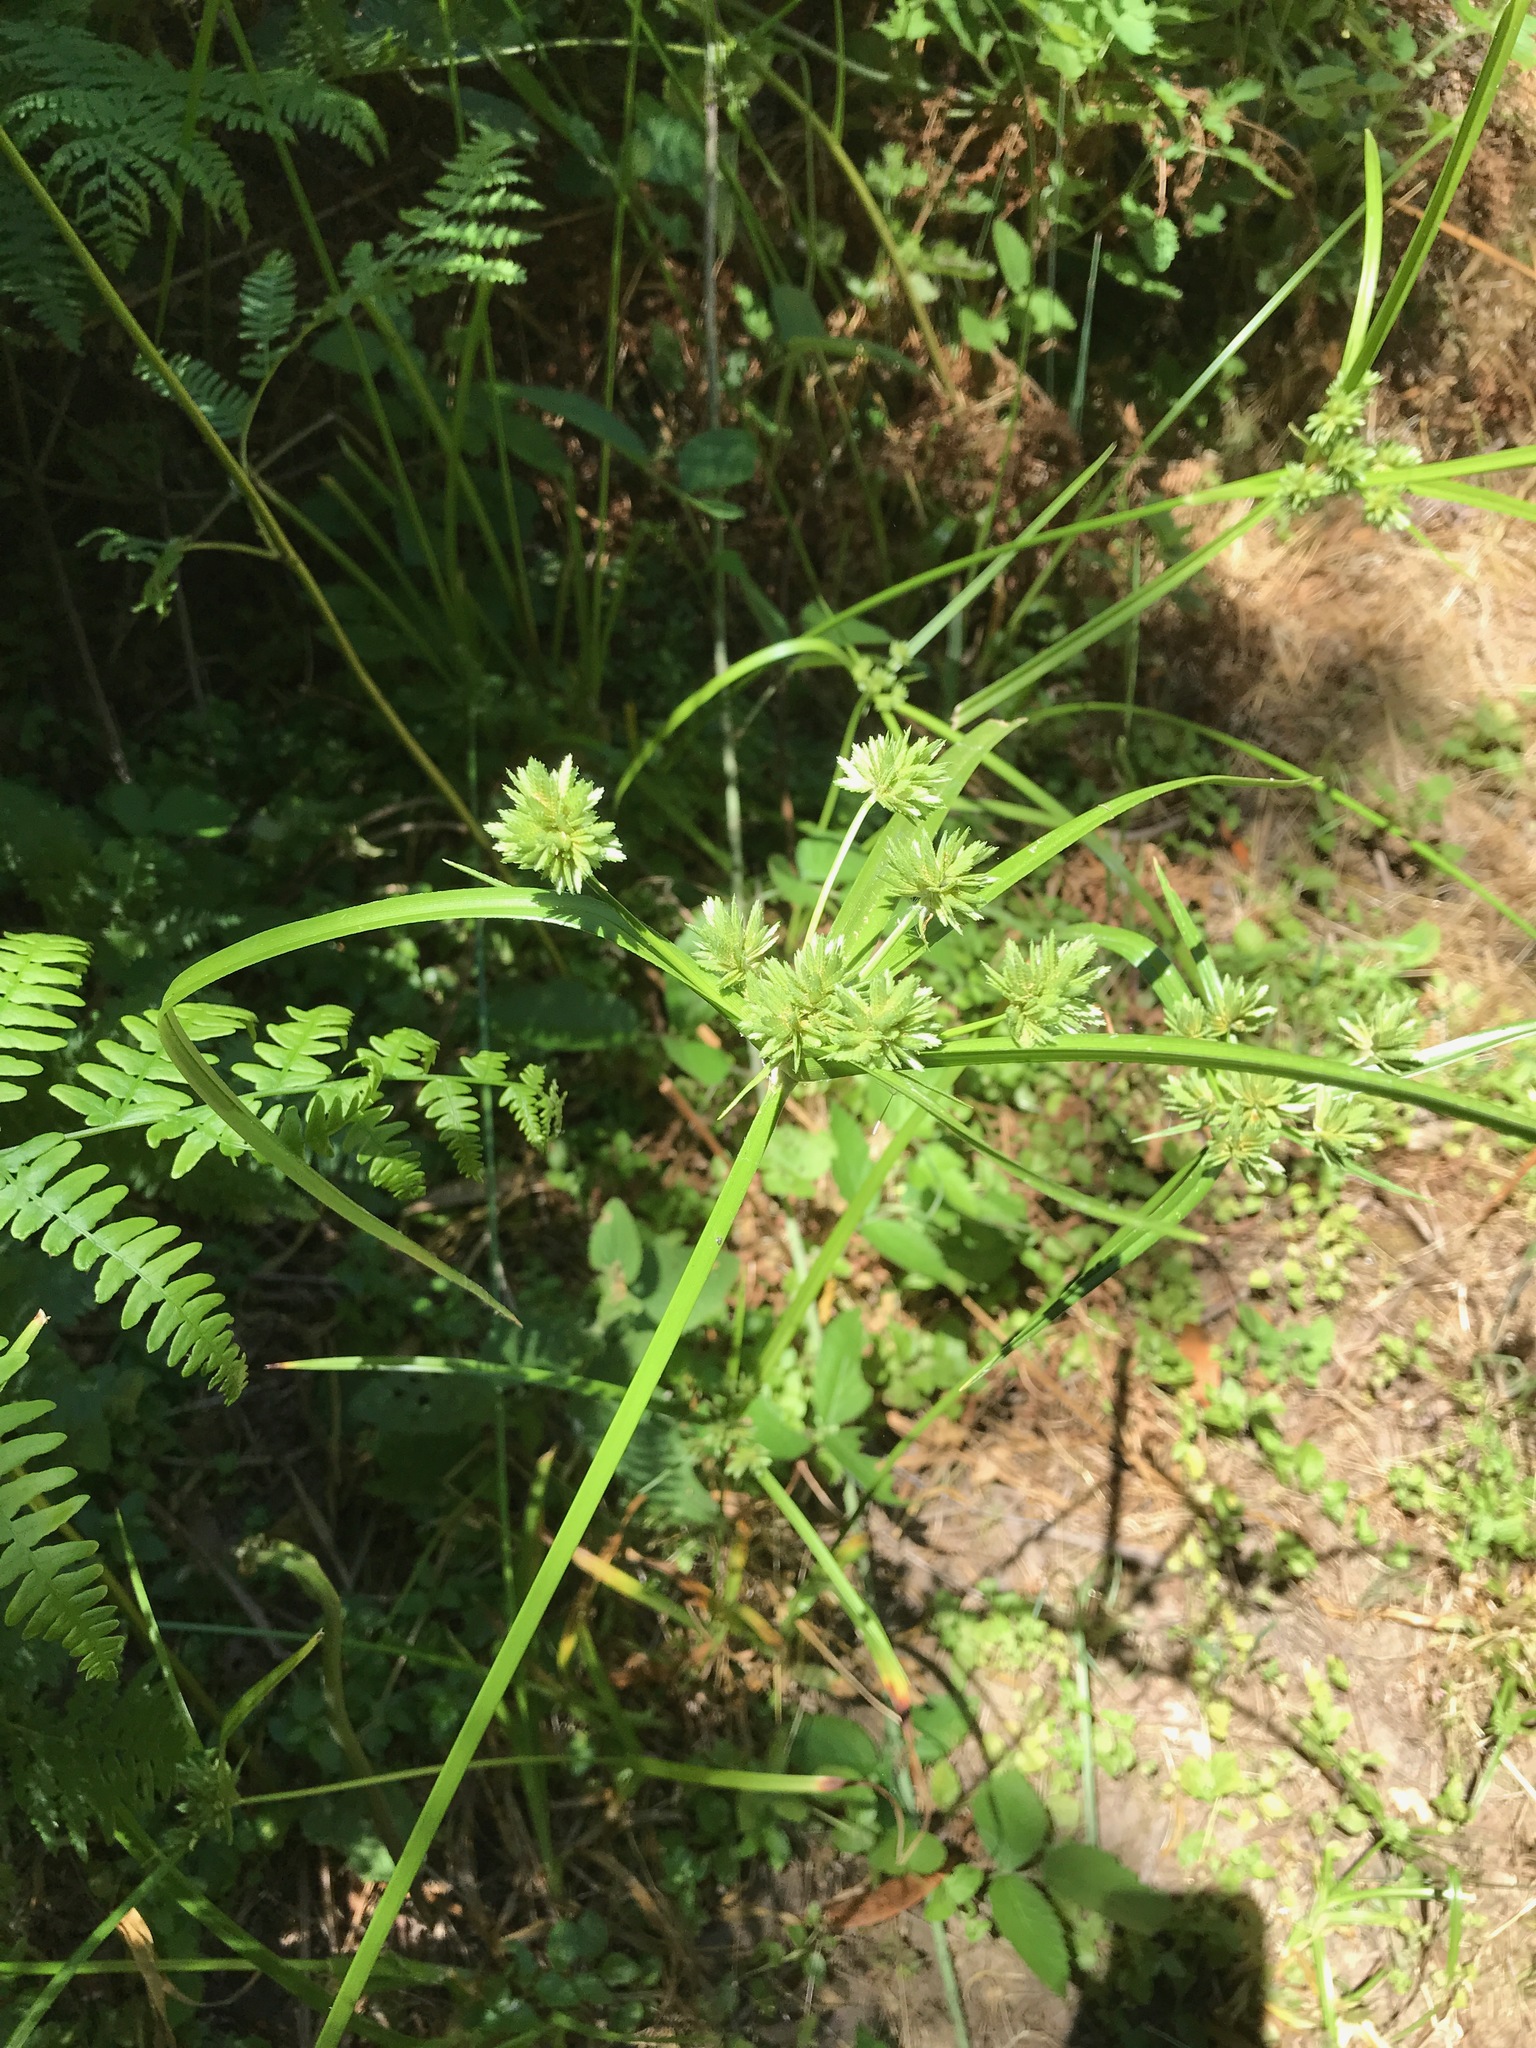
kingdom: Plantae
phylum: Tracheophyta
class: Liliopsida
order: Poales
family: Cyperaceae
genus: Cyperus
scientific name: Cyperus eragrostis
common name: Tall flatsedge
